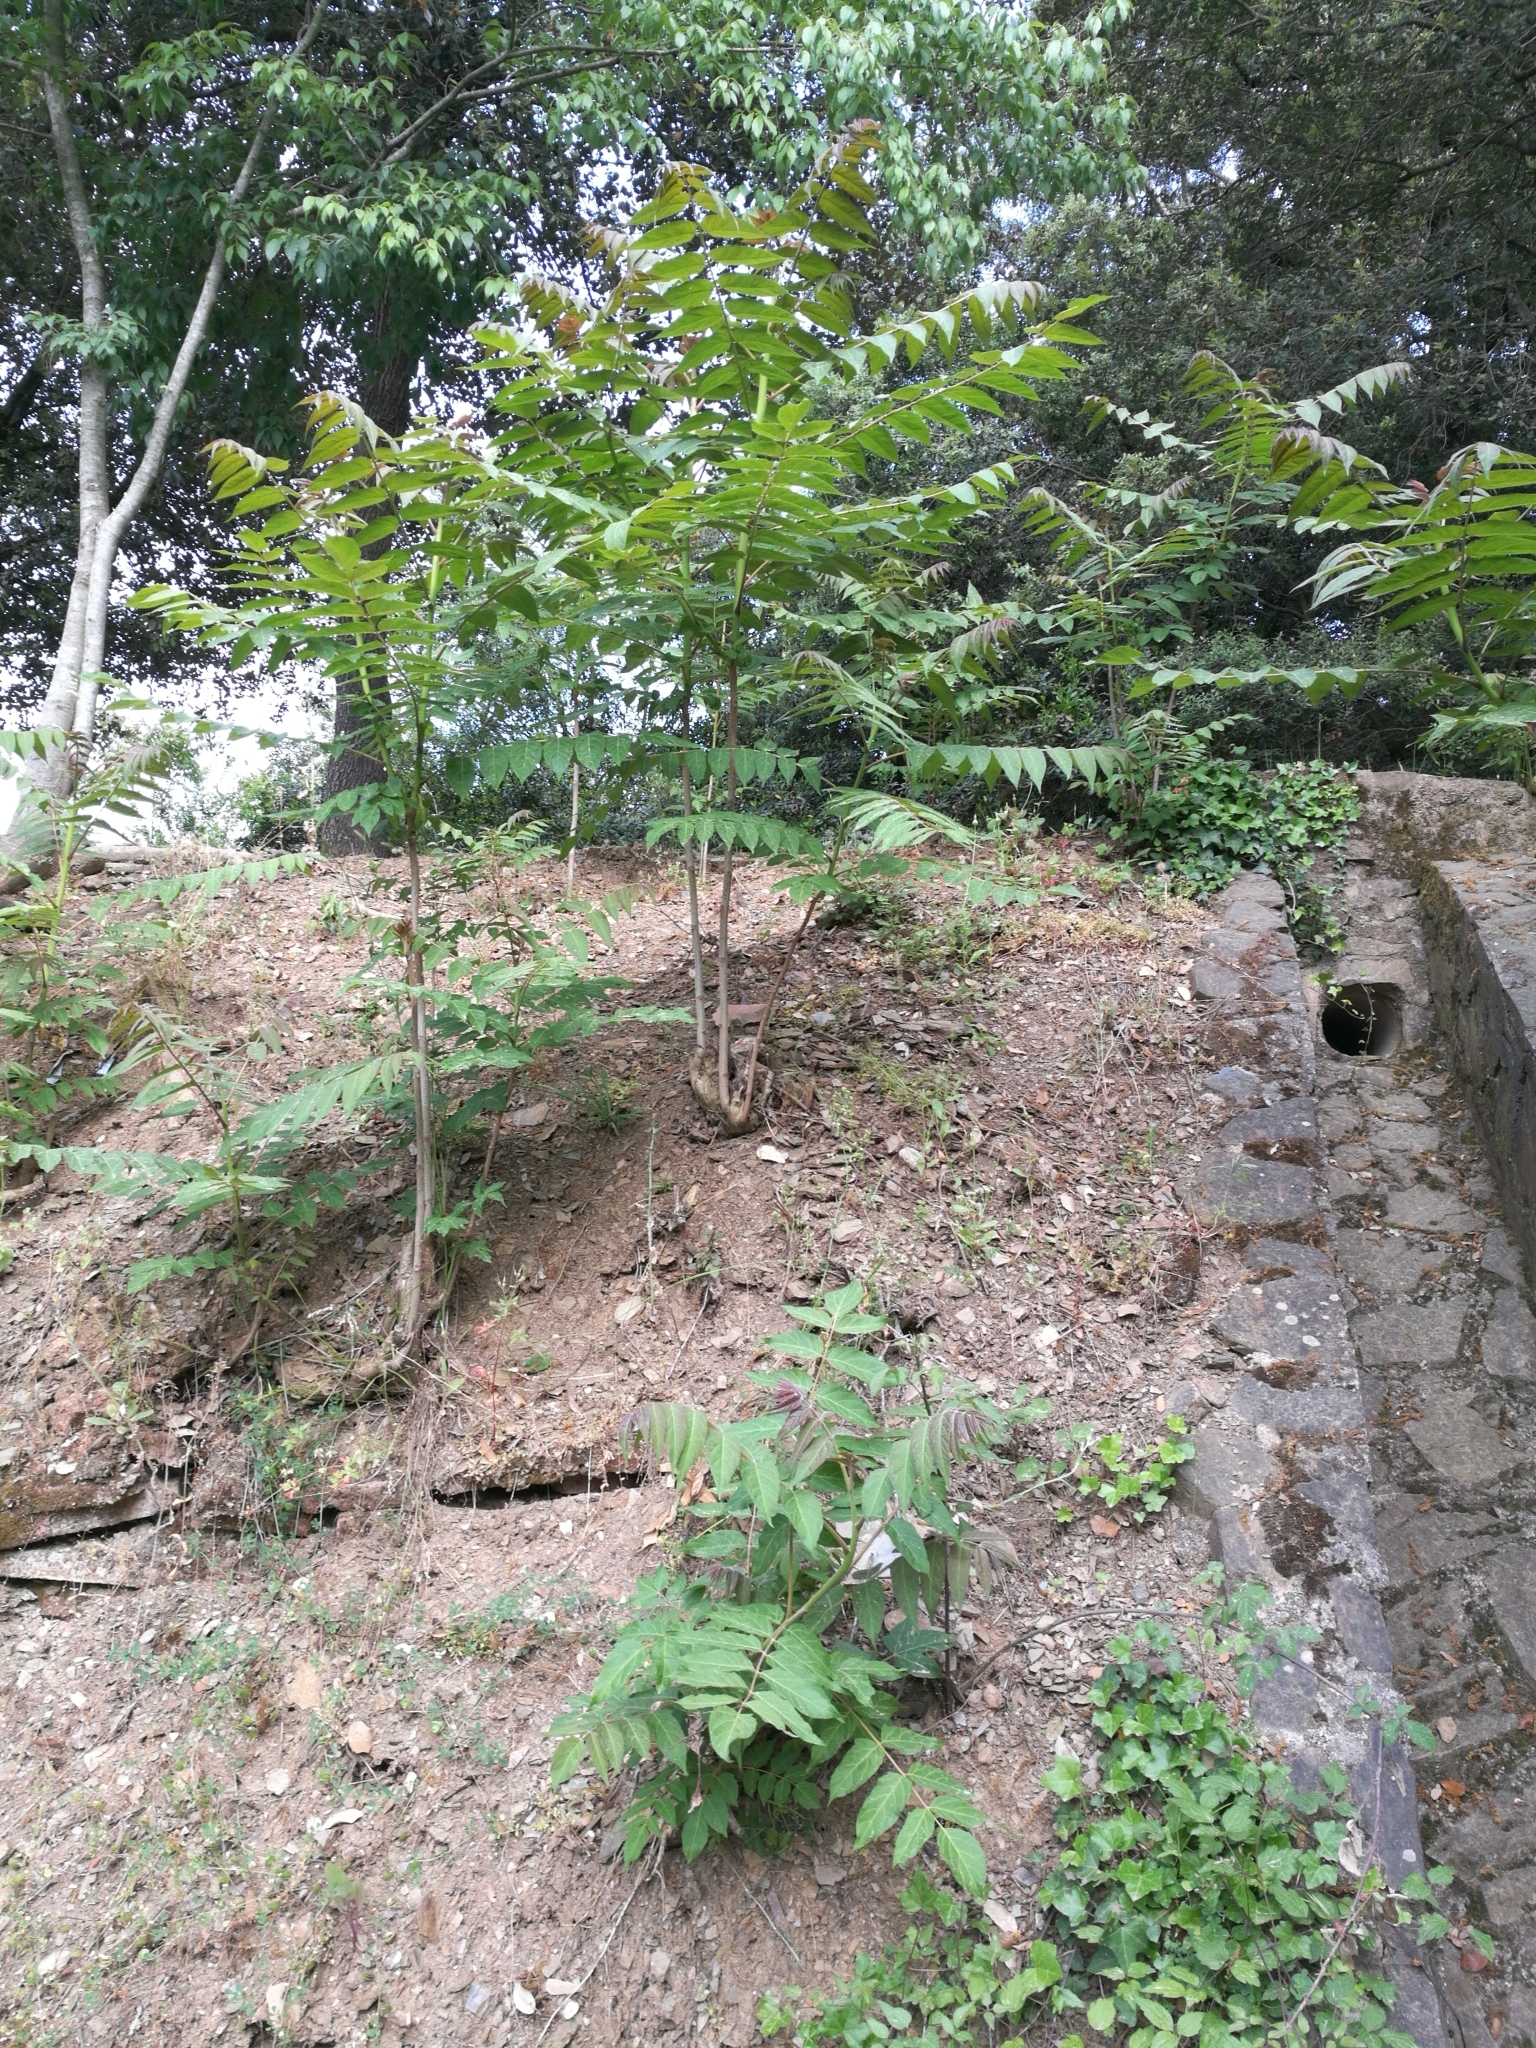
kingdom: Plantae
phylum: Tracheophyta
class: Magnoliopsida
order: Sapindales
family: Simaroubaceae
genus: Ailanthus
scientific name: Ailanthus altissima
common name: Tree-of-heaven
